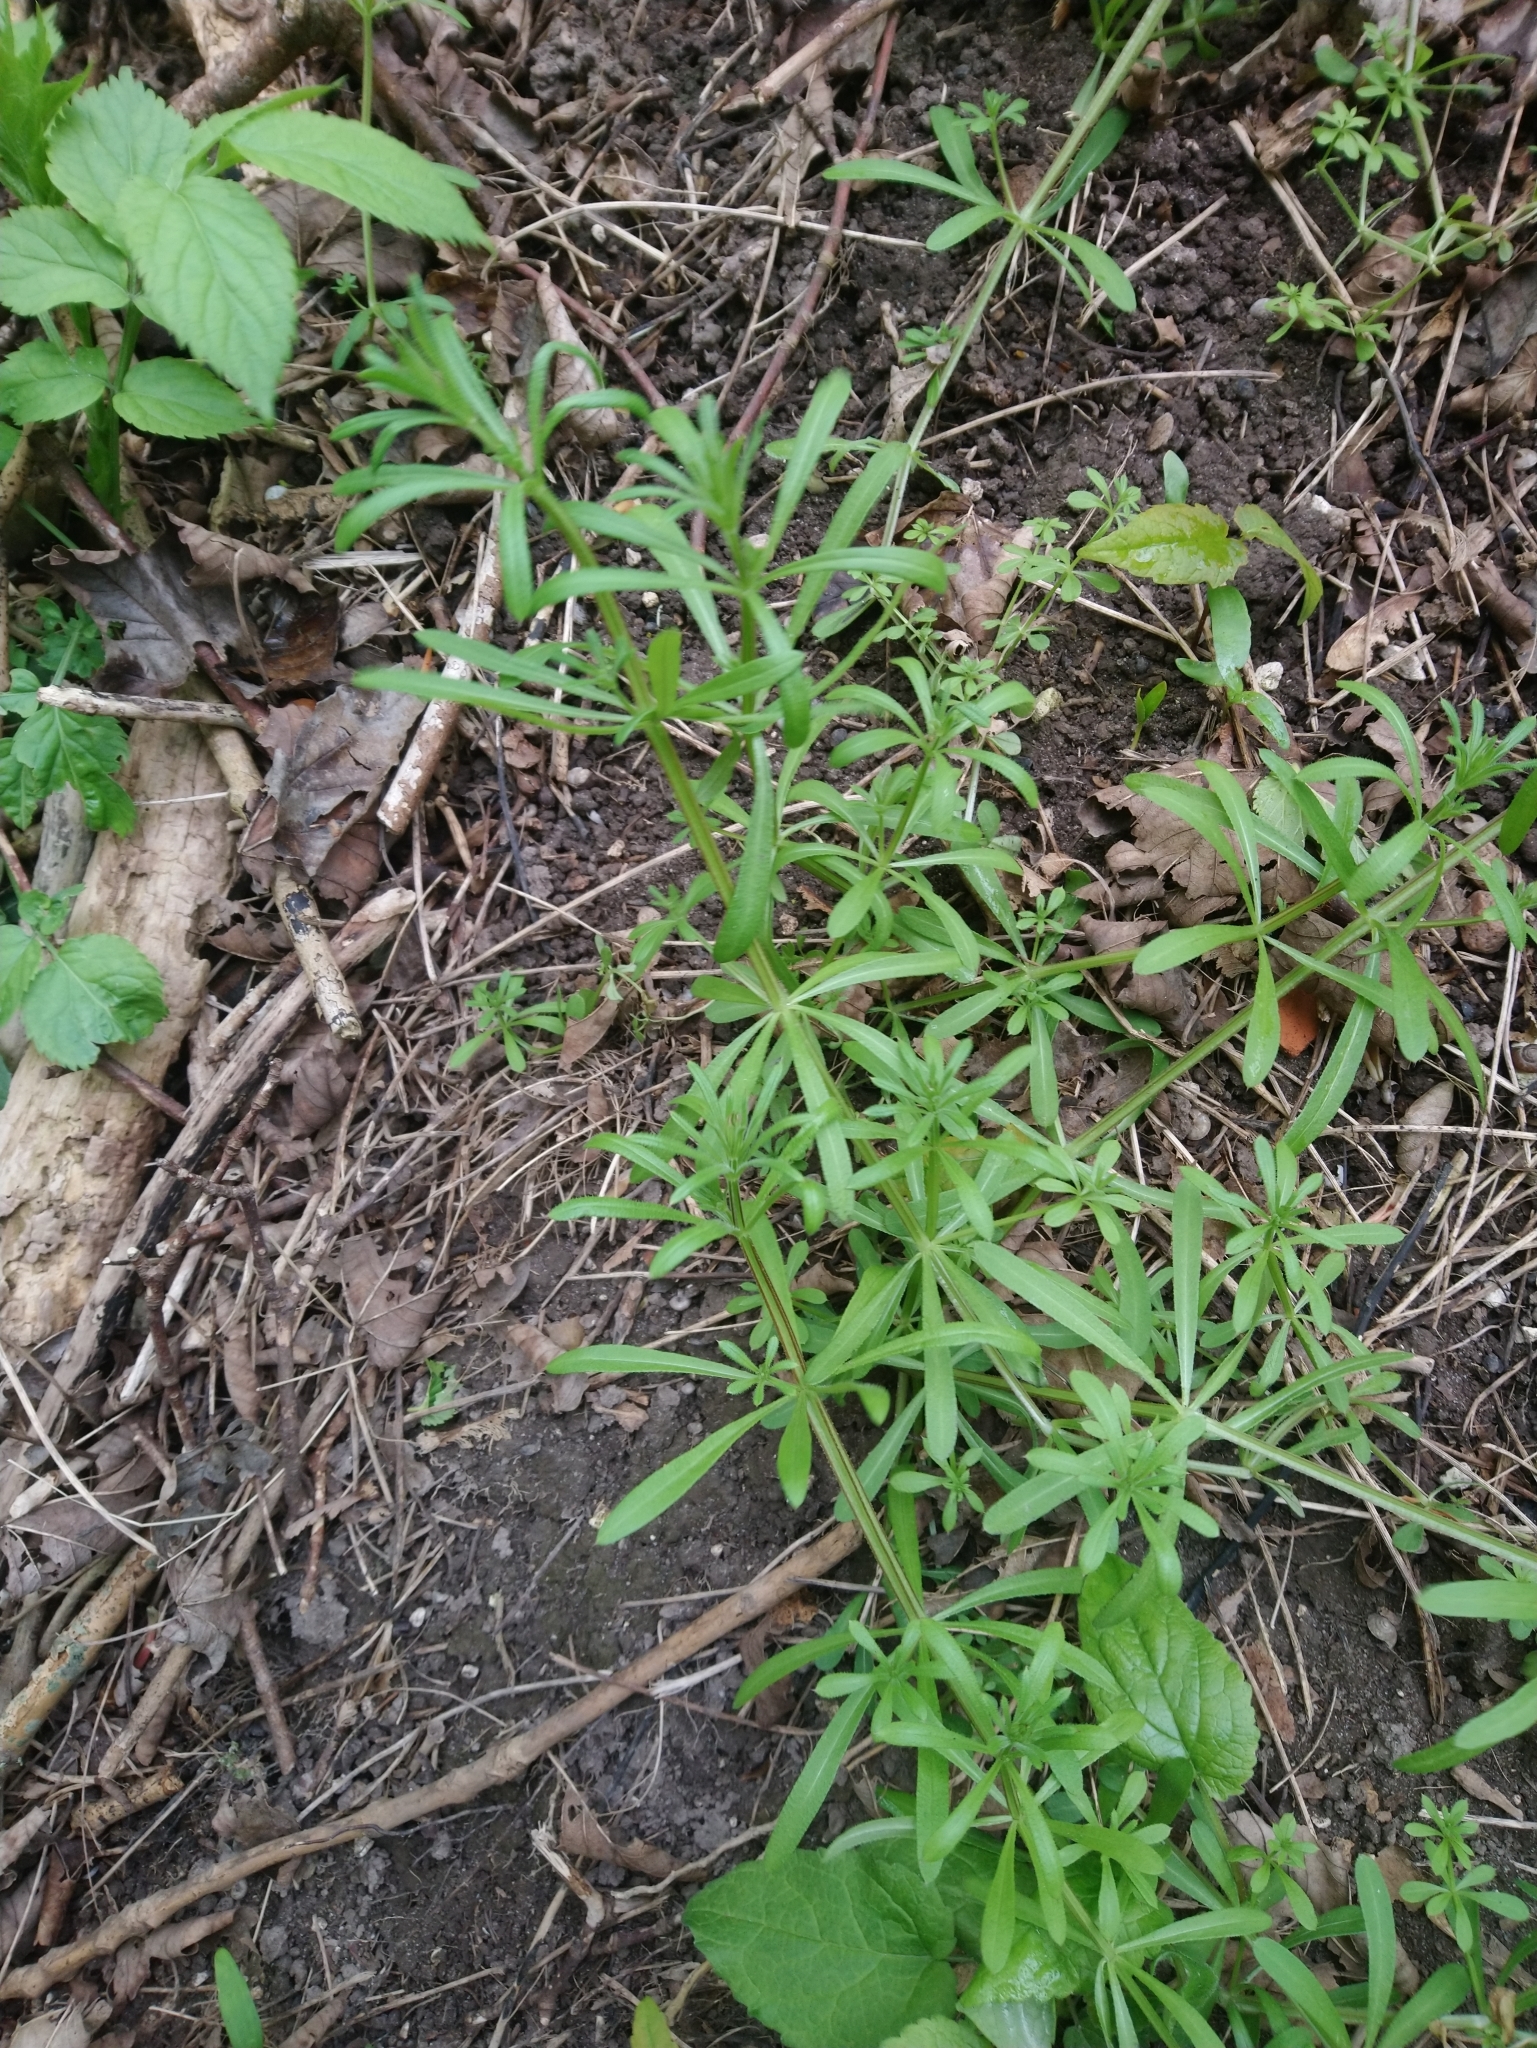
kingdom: Plantae
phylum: Tracheophyta
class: Magnoliopsida
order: Gentianales
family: Rubiaceae
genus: Galium
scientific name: Galium aparine
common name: Cleavers
